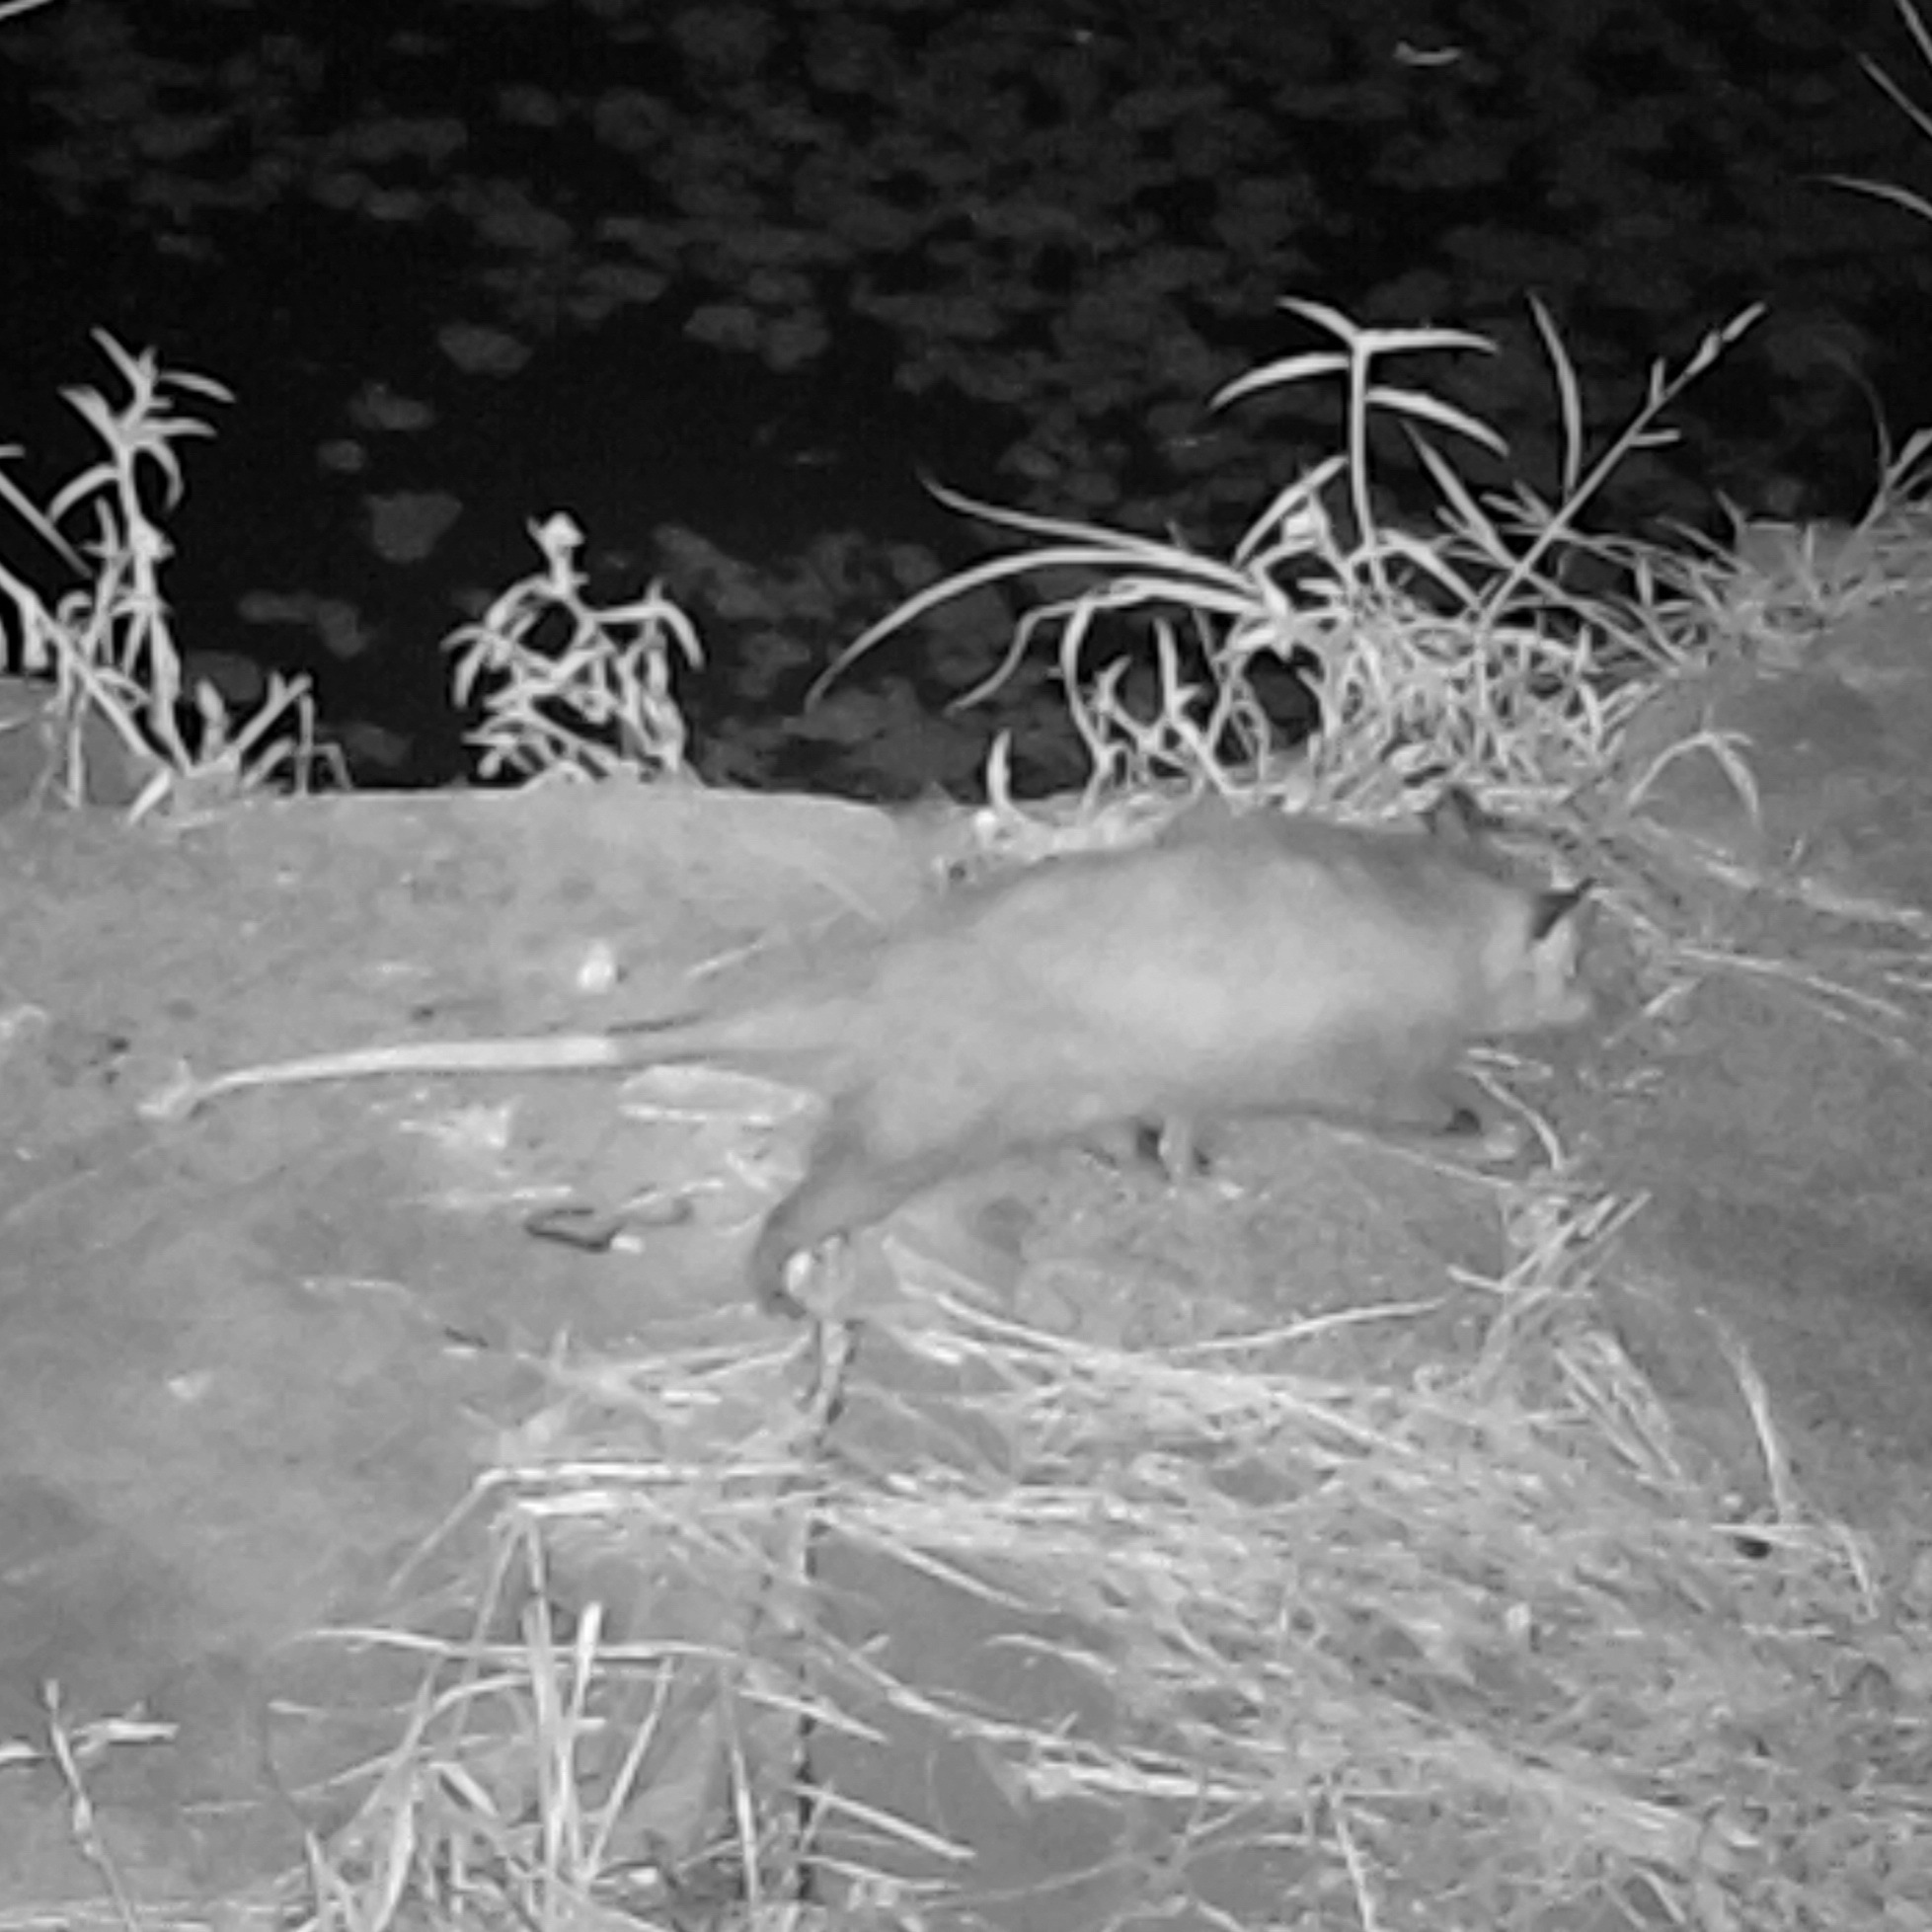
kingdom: Animalia
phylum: Chordata
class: Mammalia
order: Didelphimorphia
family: Didelphidae
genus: Didelphis
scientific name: Didelphis virginiana
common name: Virginia opossum
